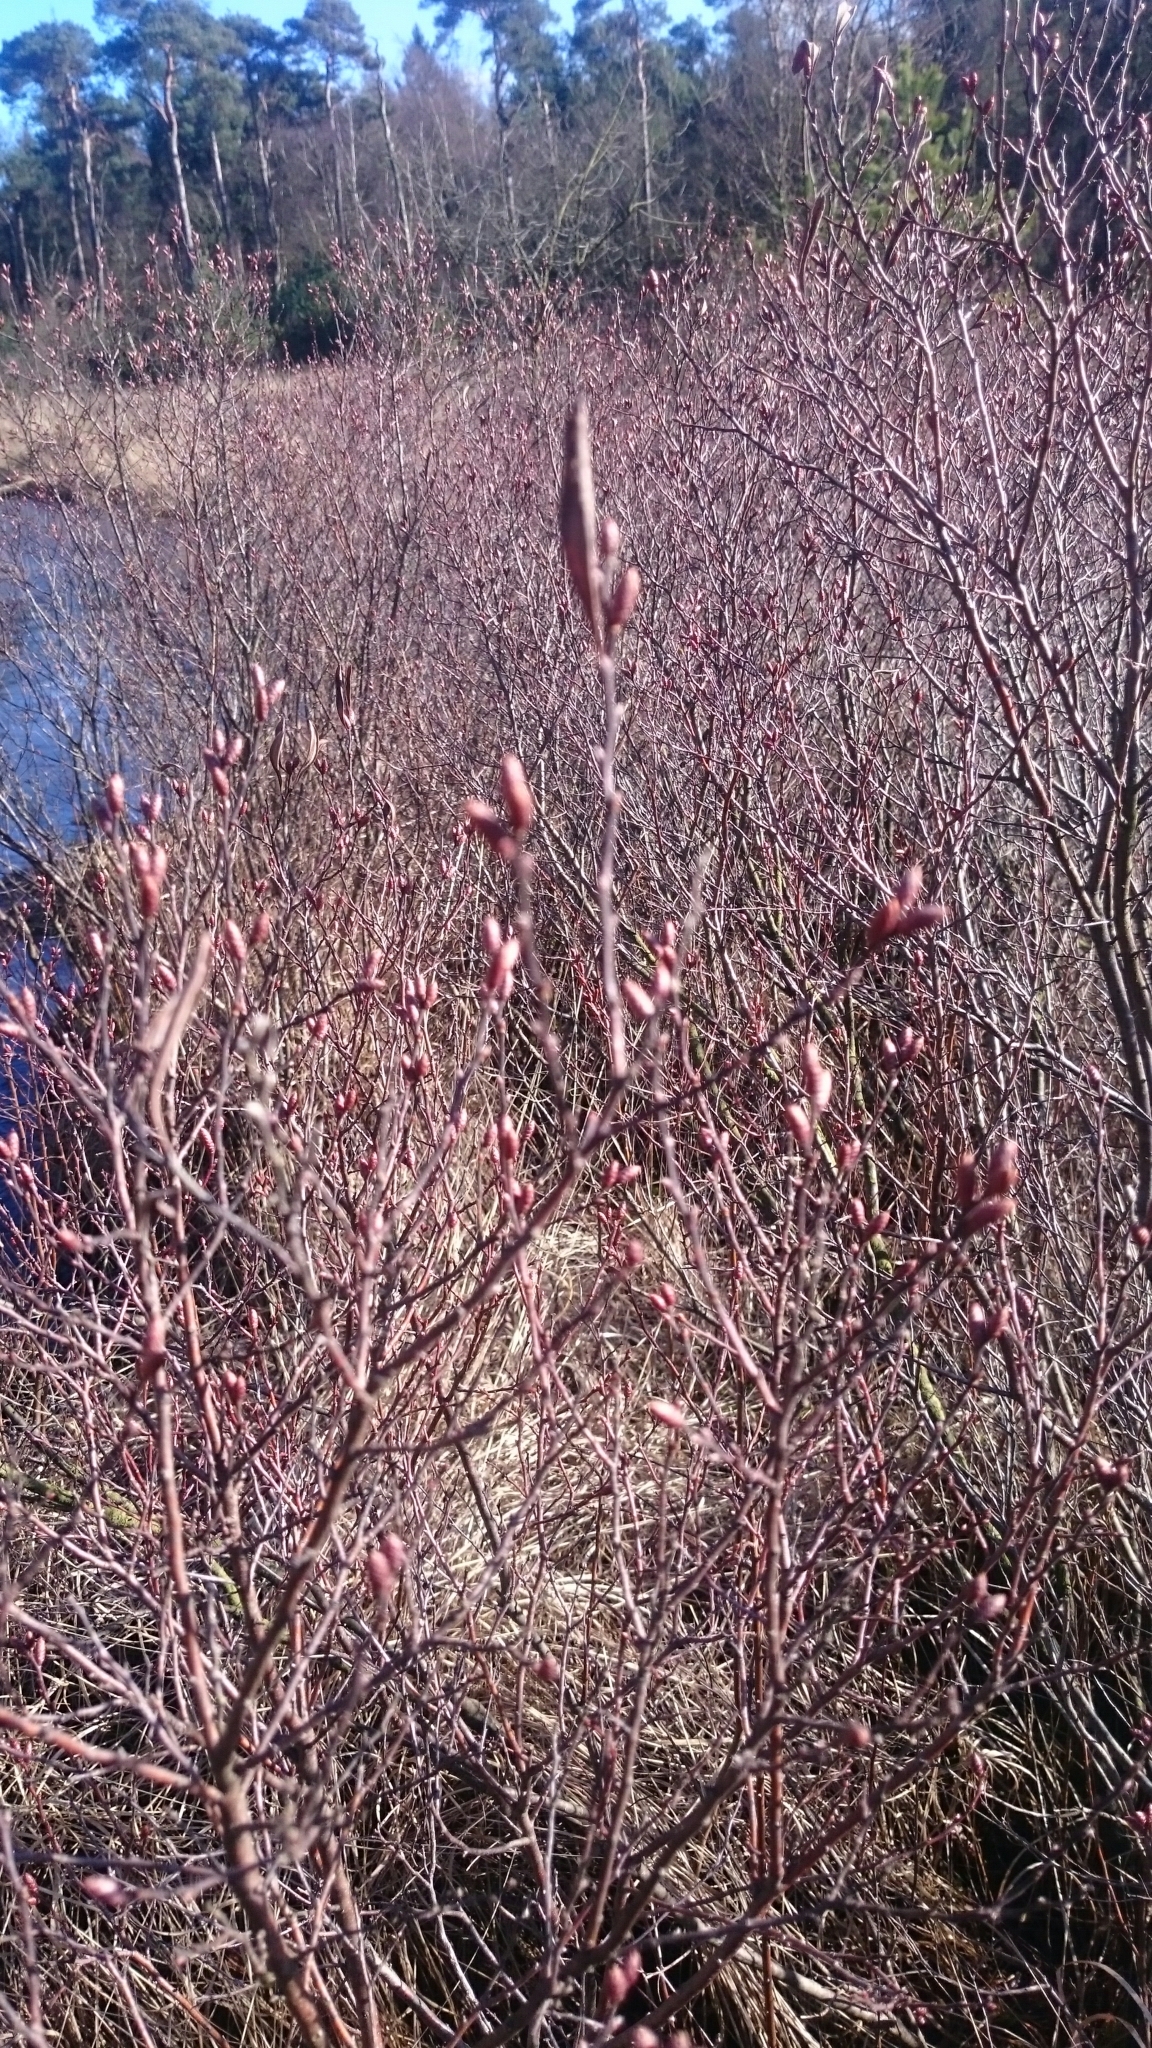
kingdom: Plantae
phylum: Tracheophyta
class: Magnoliopsida
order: Fagales
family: Myricaceae
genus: Myrica
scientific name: Myrica gale
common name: Sweet gale
